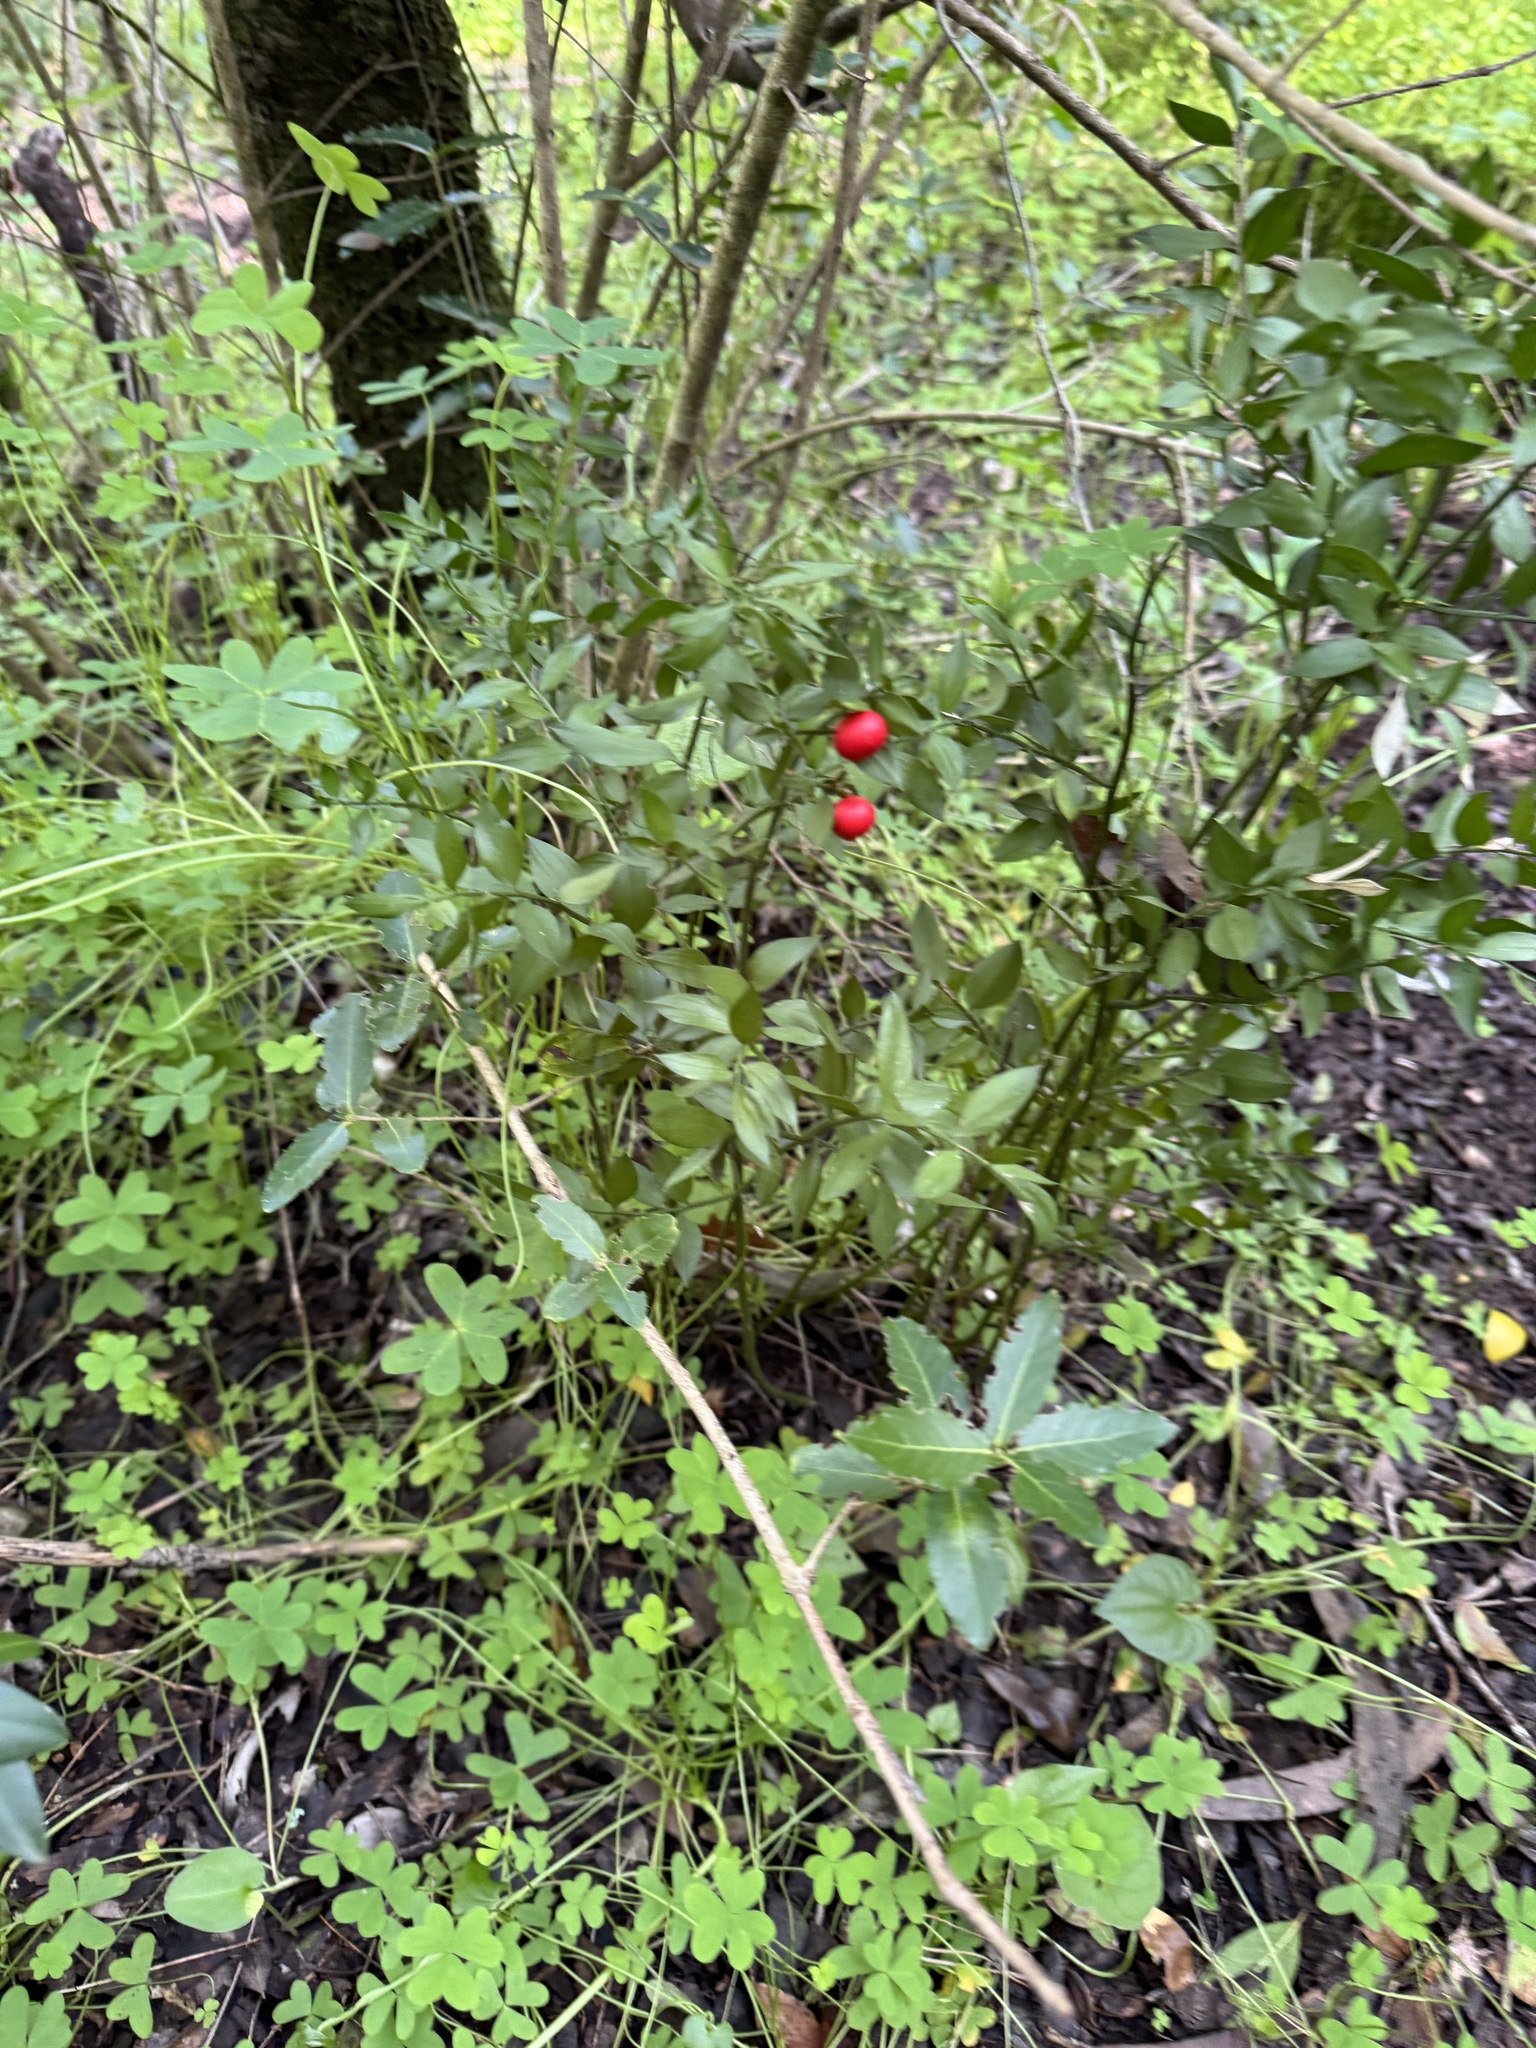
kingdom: Plantae
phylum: Tracheophyta
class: Liliopsida
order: Asparagales
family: Asparagaceae
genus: Ruscus
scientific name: Ruscus aculeatus
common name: Butcher's-broom
